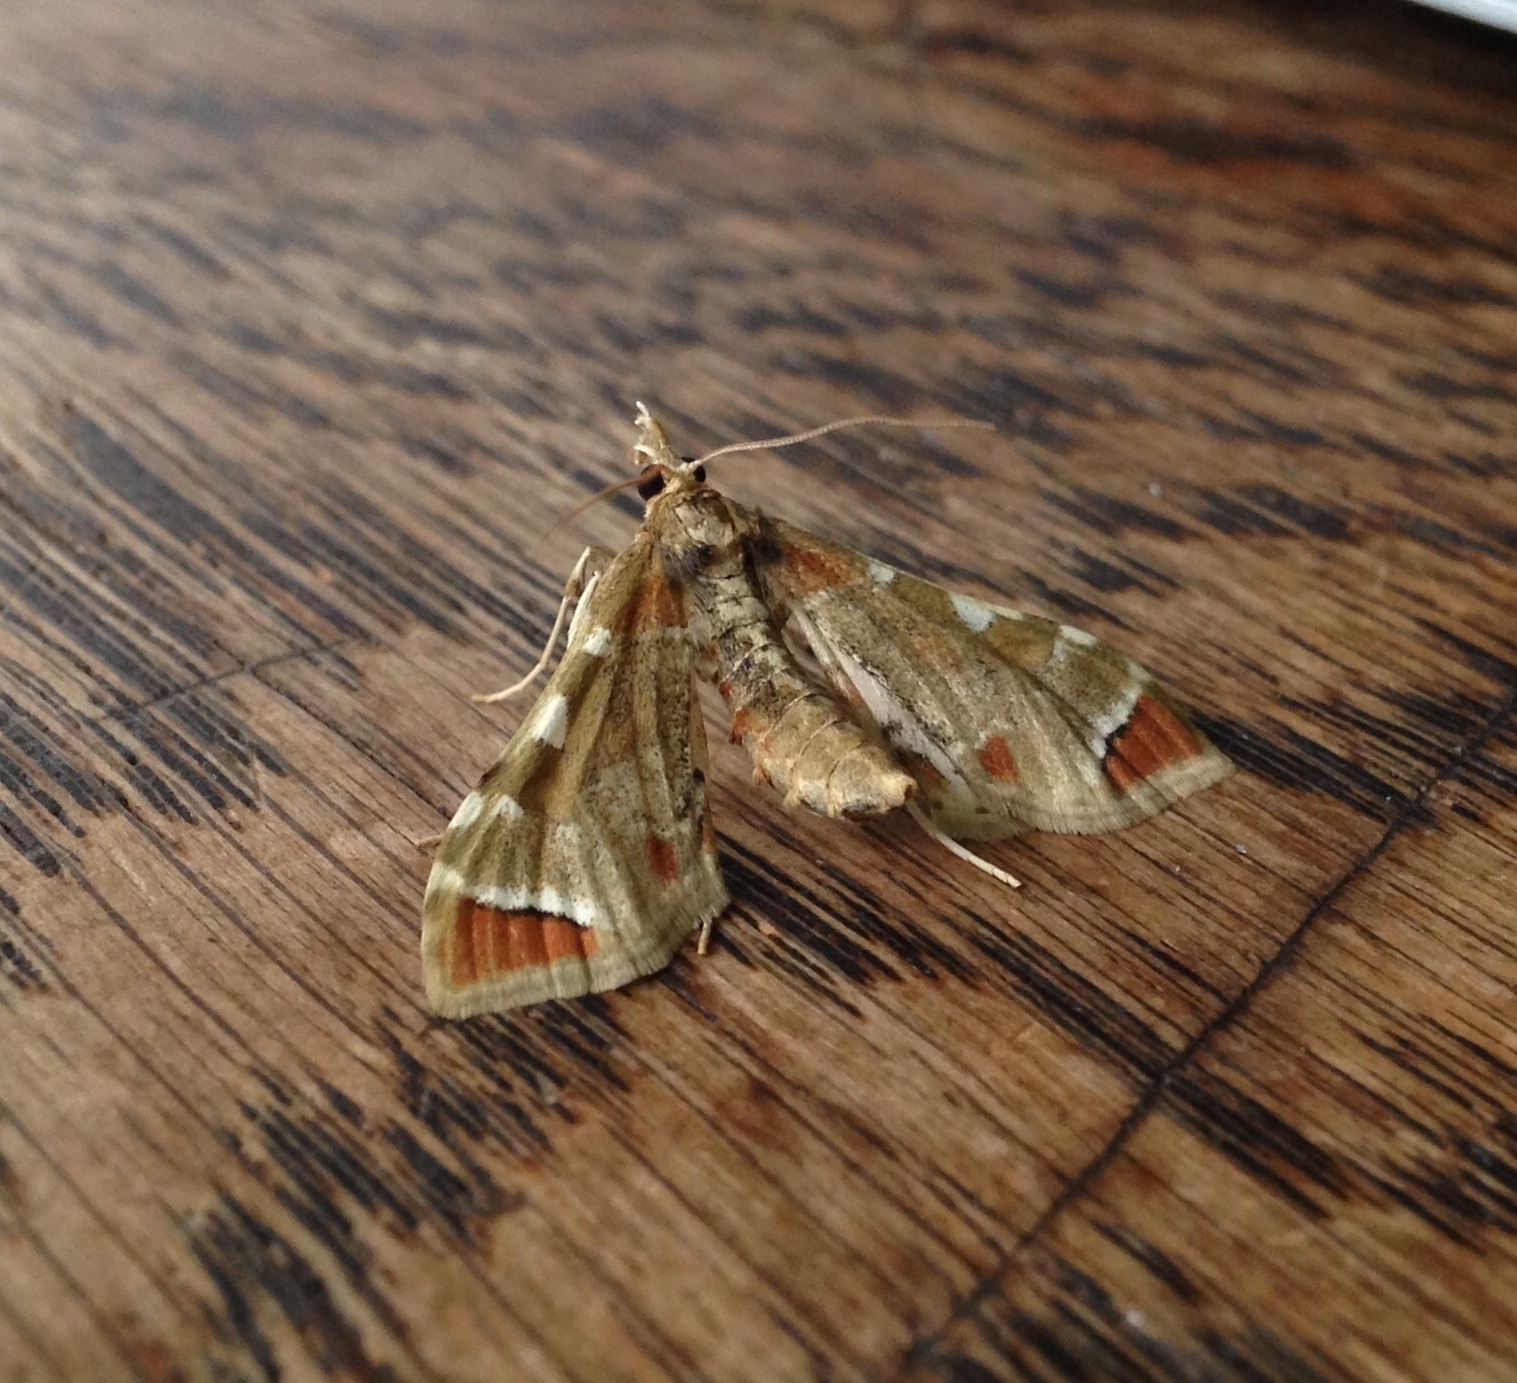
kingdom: Animalia
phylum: Arthropoda
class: Insecta
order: Lepidoptera
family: Crambidae
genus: Sceliodes
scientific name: Sceliodes cordalis
